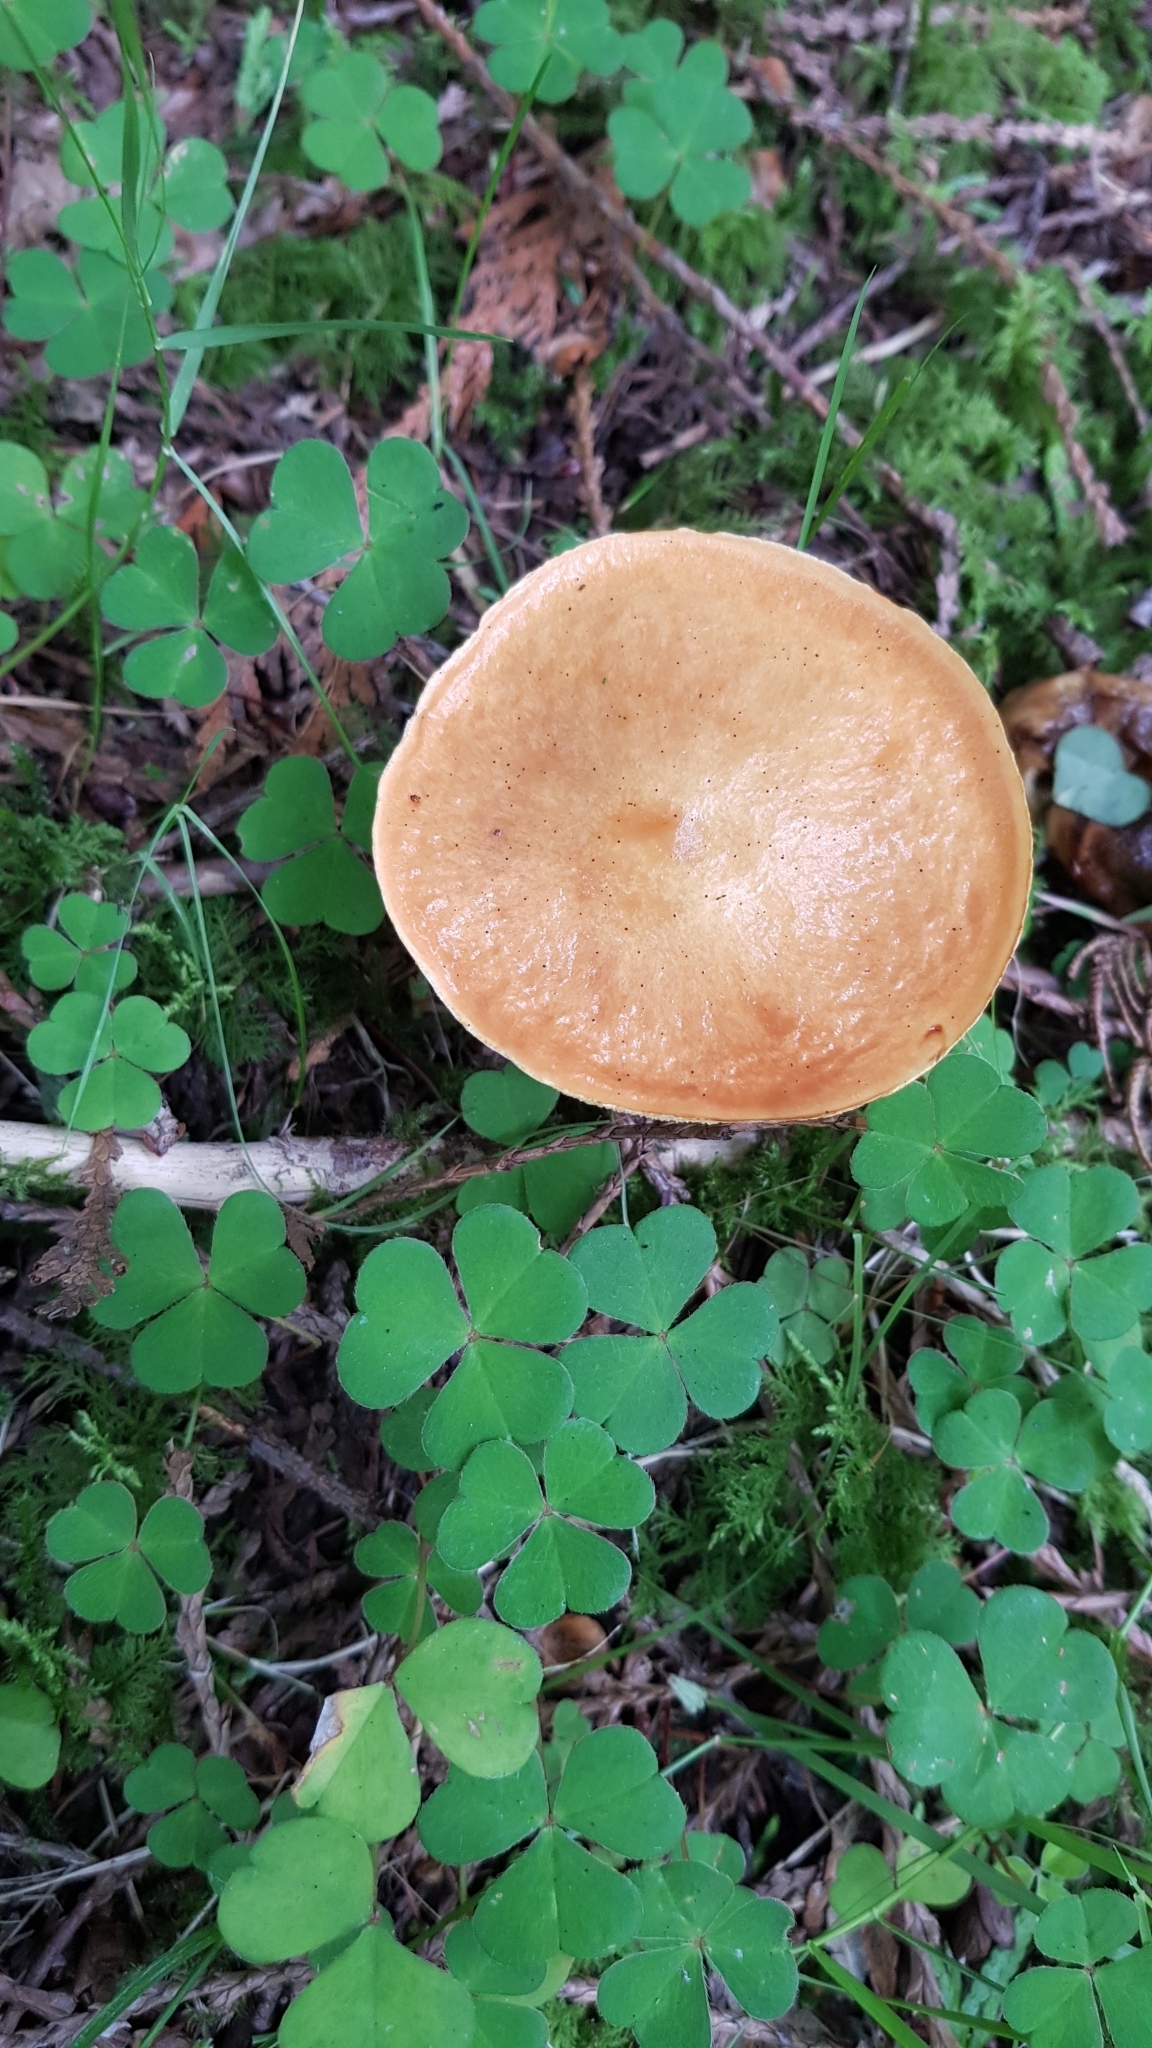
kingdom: Fungi
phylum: Basidiomycota
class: Agaricomycetes
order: Boletales
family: Suillaceae
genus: Suillus
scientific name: Suillus grevillei
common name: Larch bolete
